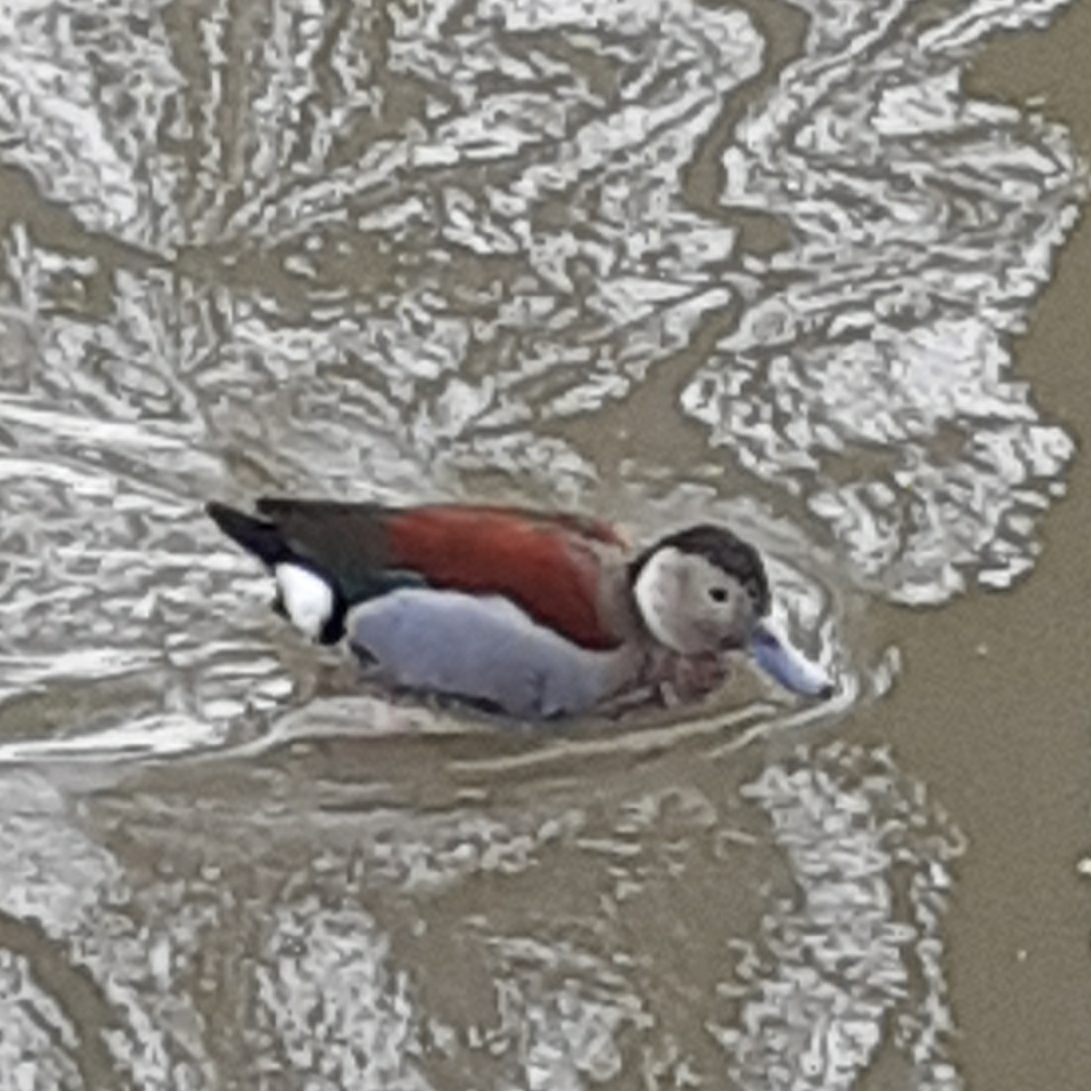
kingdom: Animalia
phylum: Chordata
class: Aves
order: Anseriformes
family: Anatidae
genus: Callonetta
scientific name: Callonetta leucophrys
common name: Ringed teal
